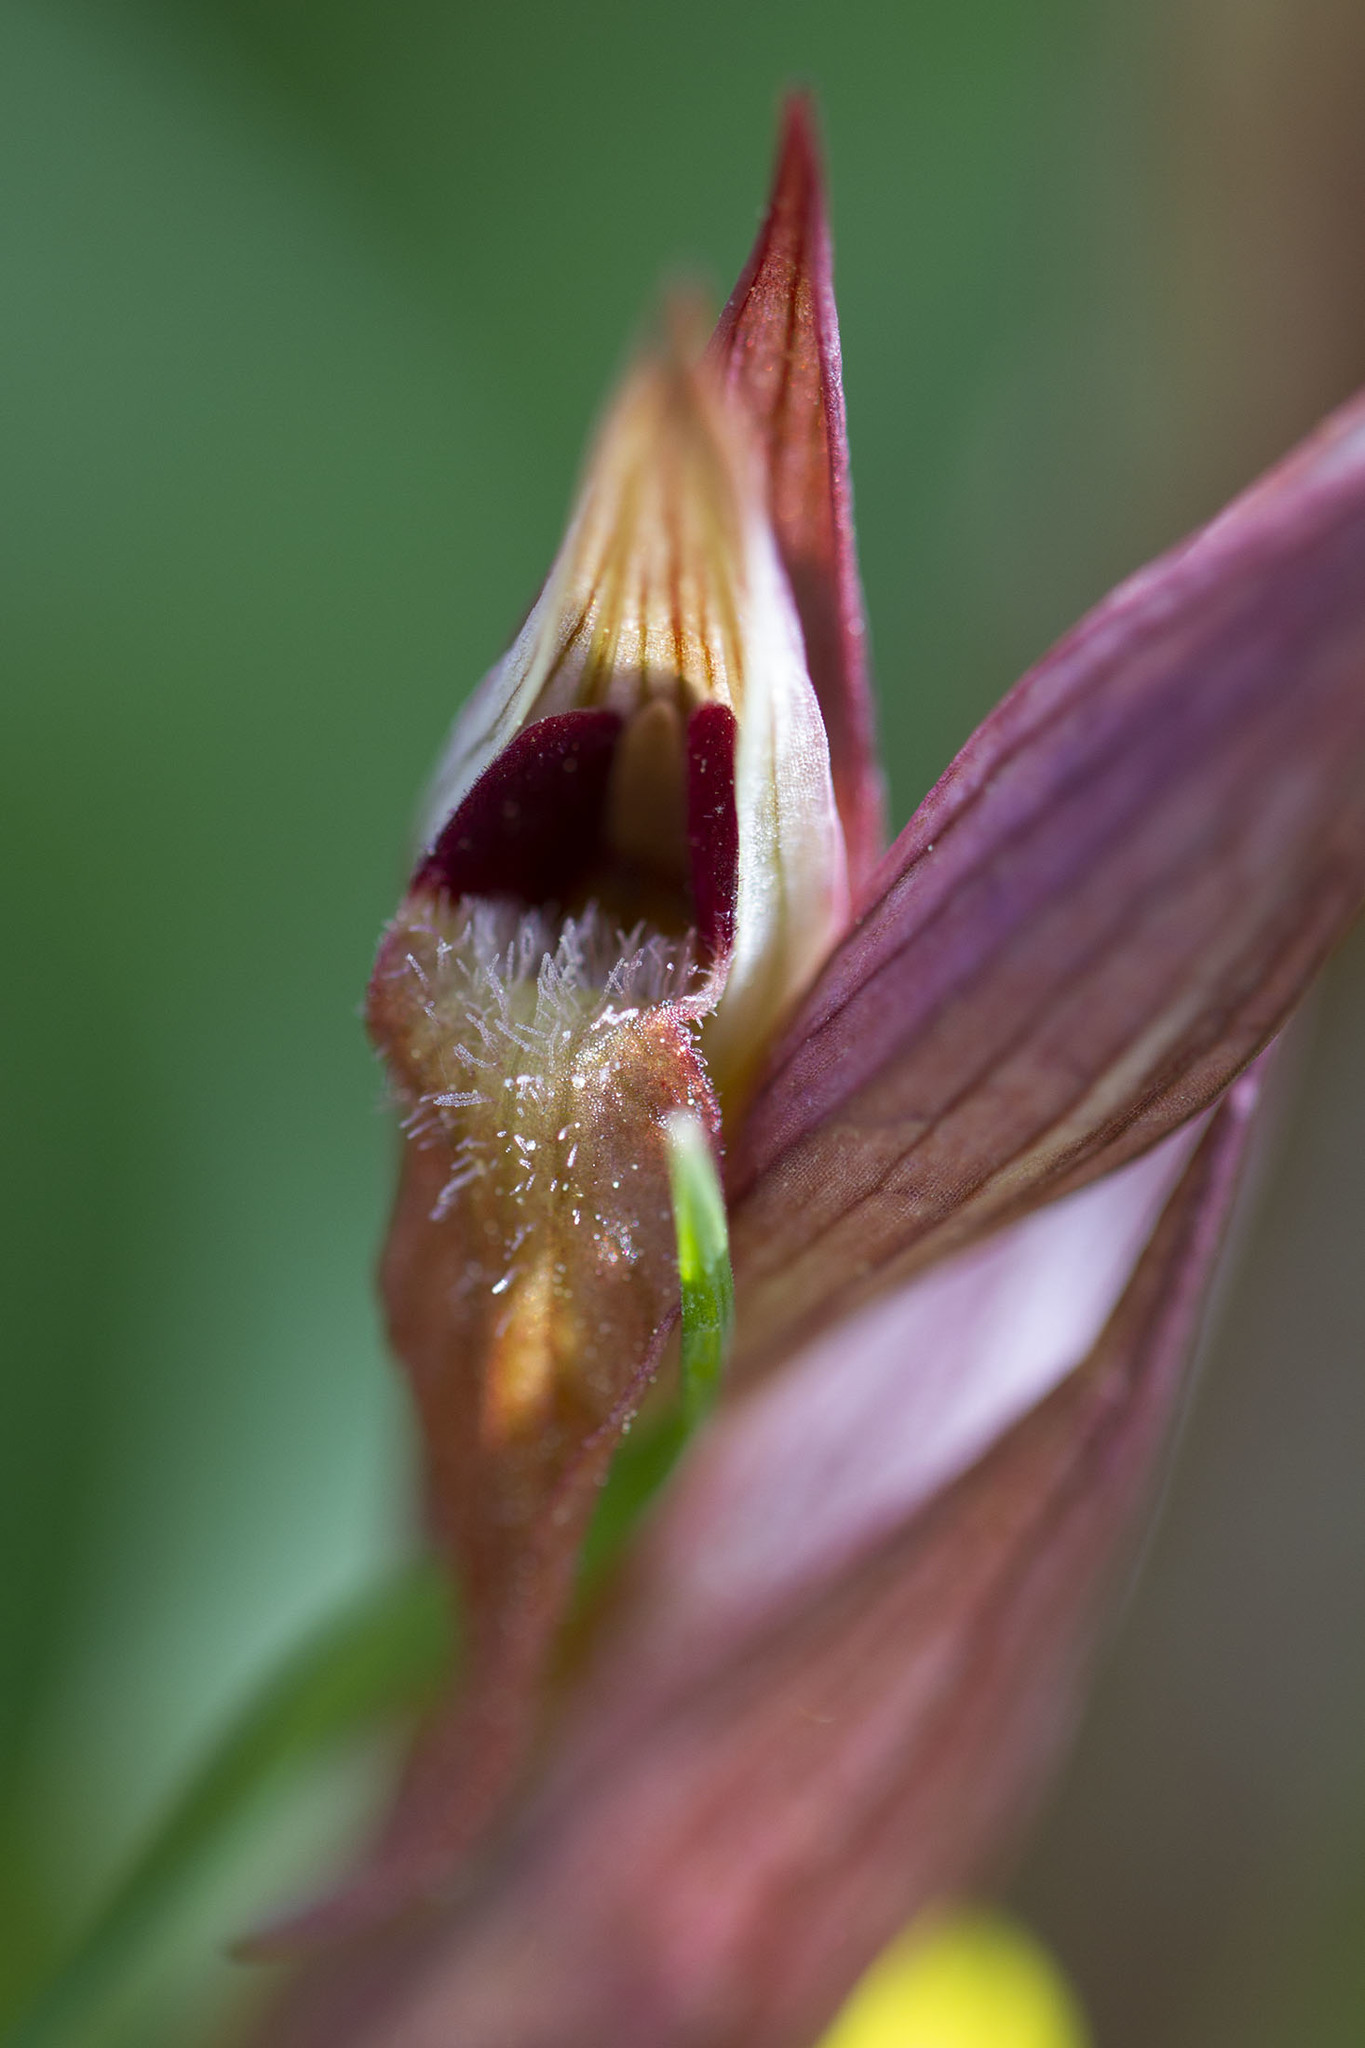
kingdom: Plantae
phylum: Tracheophyta
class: Liliopsida
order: Asparagales
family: Orchidaceae
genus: Serapias
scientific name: Serapias vomeracea
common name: Long-lipped tongue-orchid
